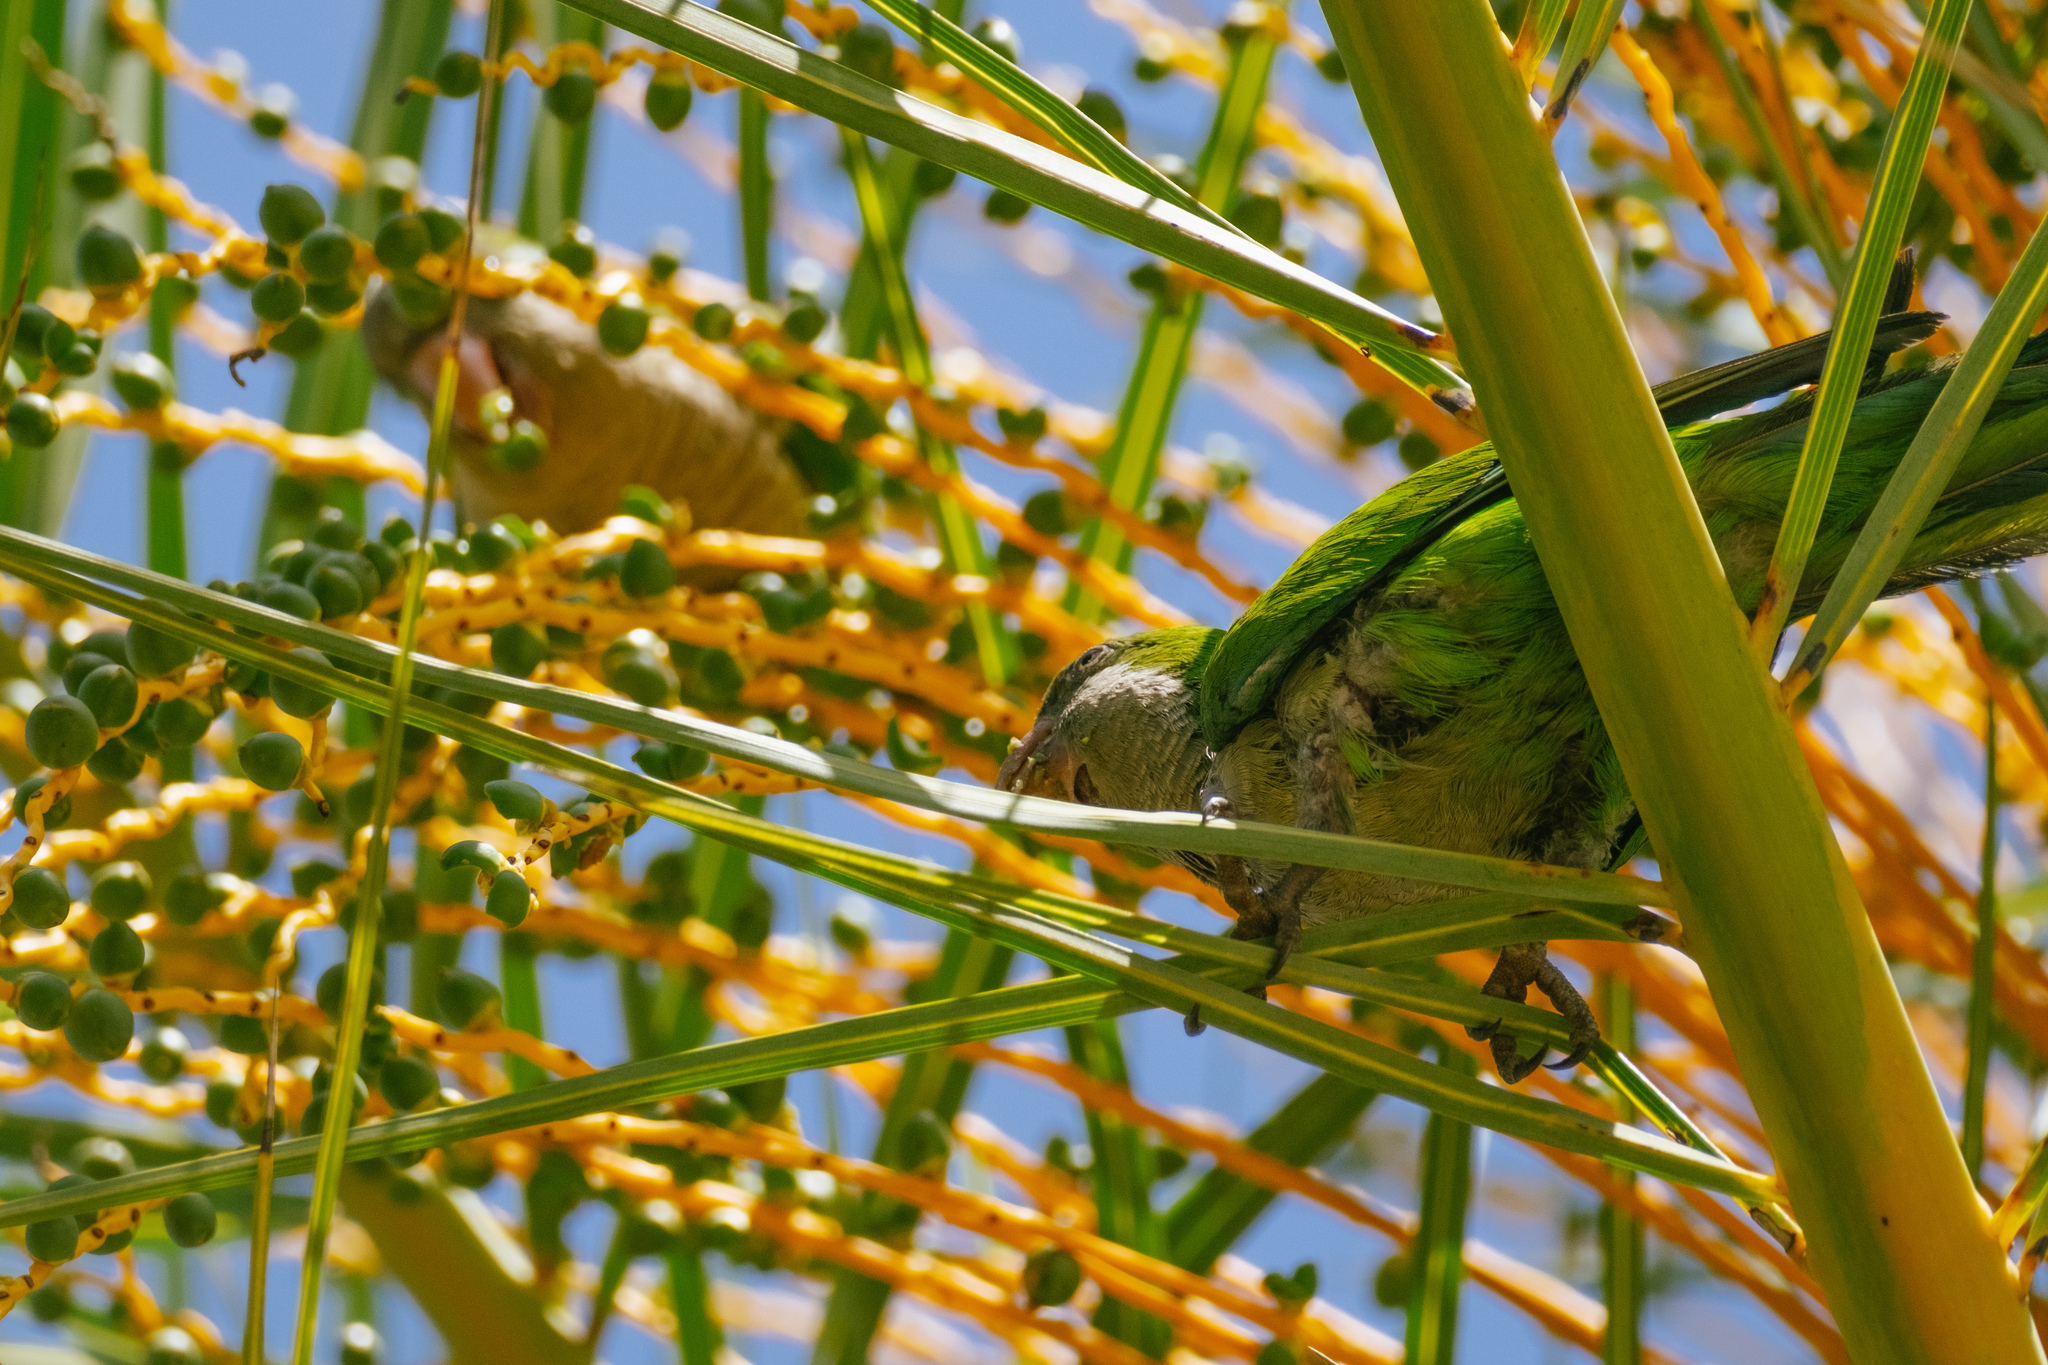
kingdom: Animalia
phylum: Chordata
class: Aves
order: Psittaciformes
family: Psittacidae
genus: Myiopsitta
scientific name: Myiopsitta monachus
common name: Monk parakeet
